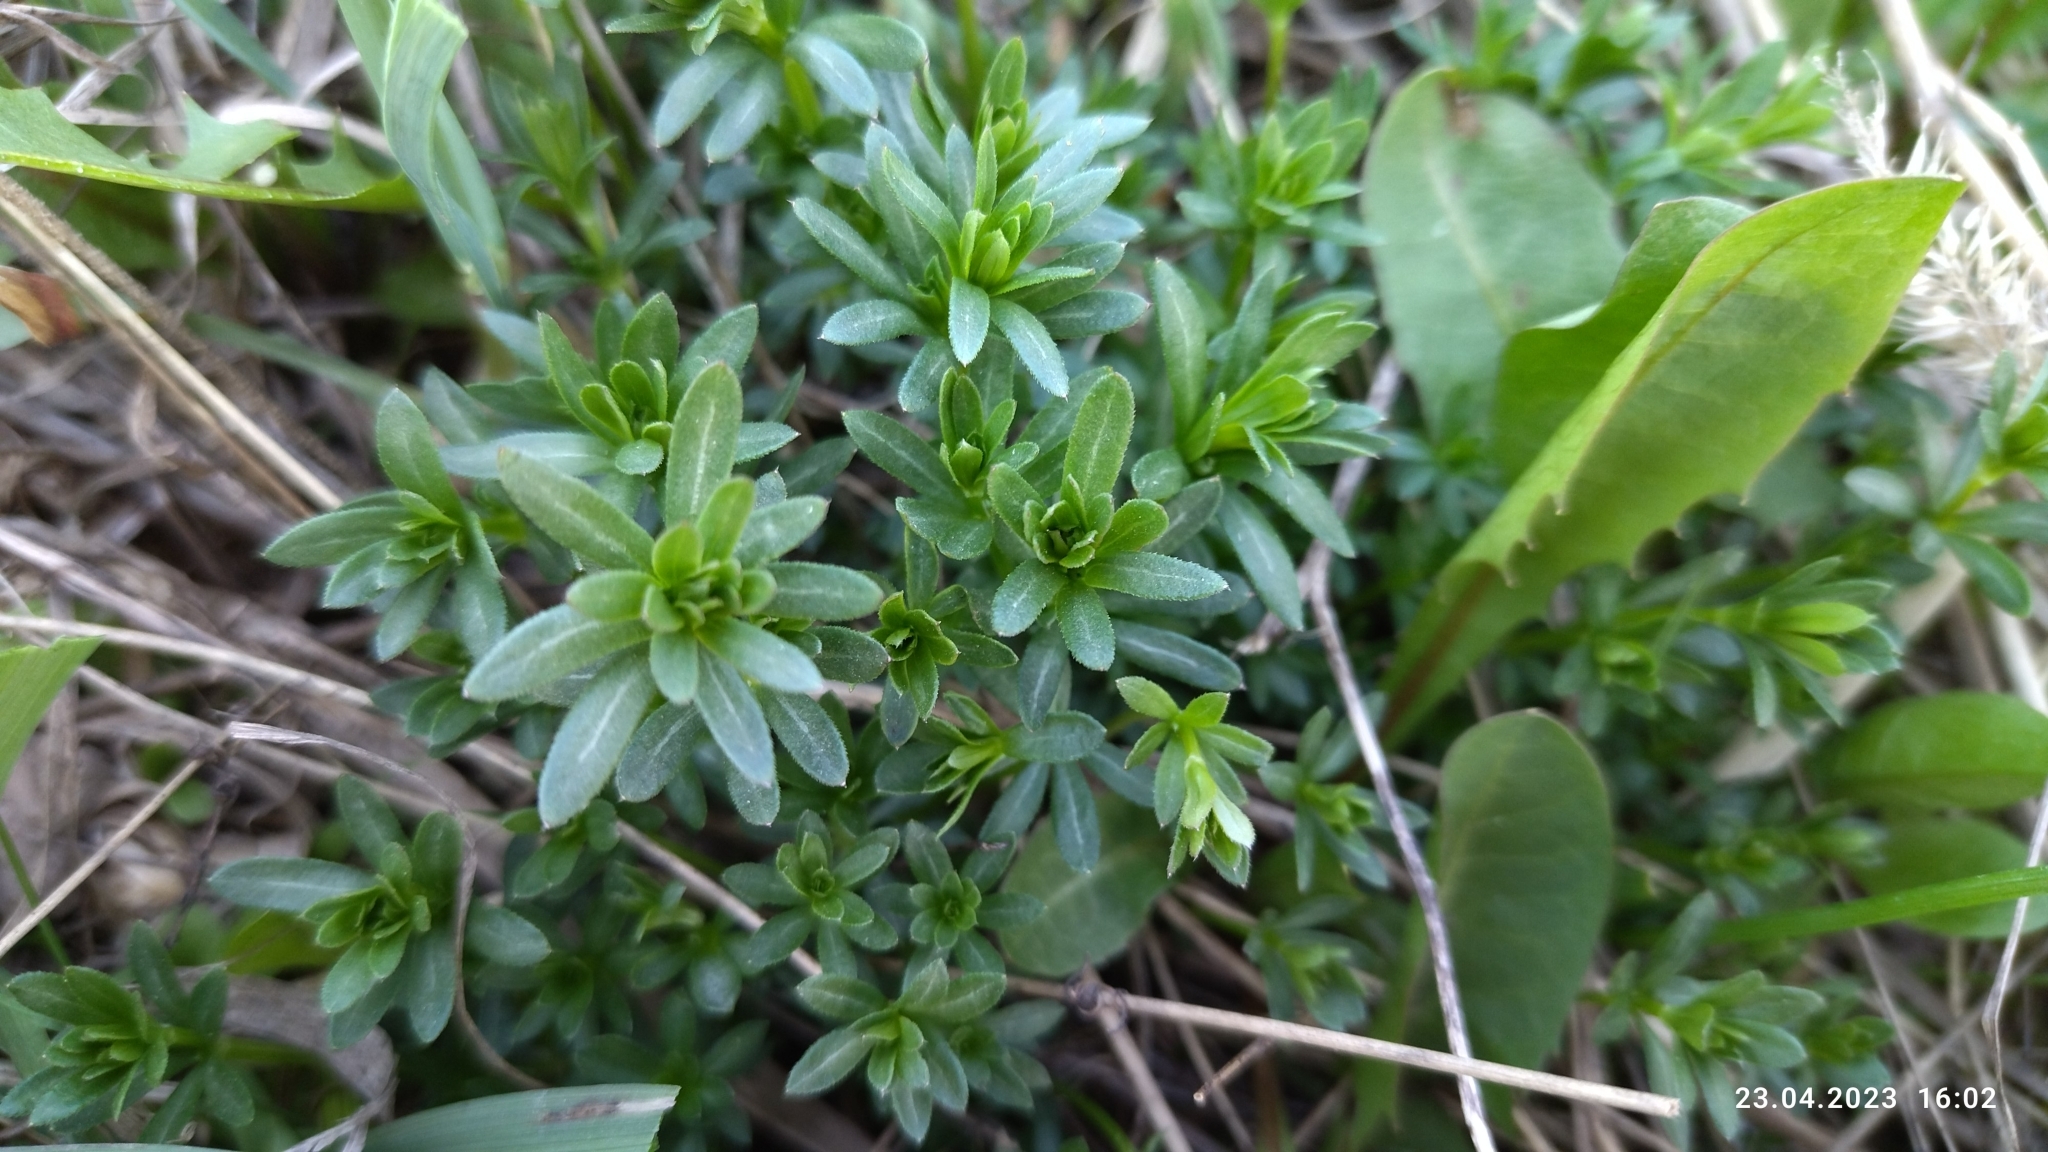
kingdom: Plantae
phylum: Tracheophyta
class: Magnoliopsida
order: Gentianales
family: Rubiaceae
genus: Galium
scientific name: Galium mollugo
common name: Hedge bedstraw
